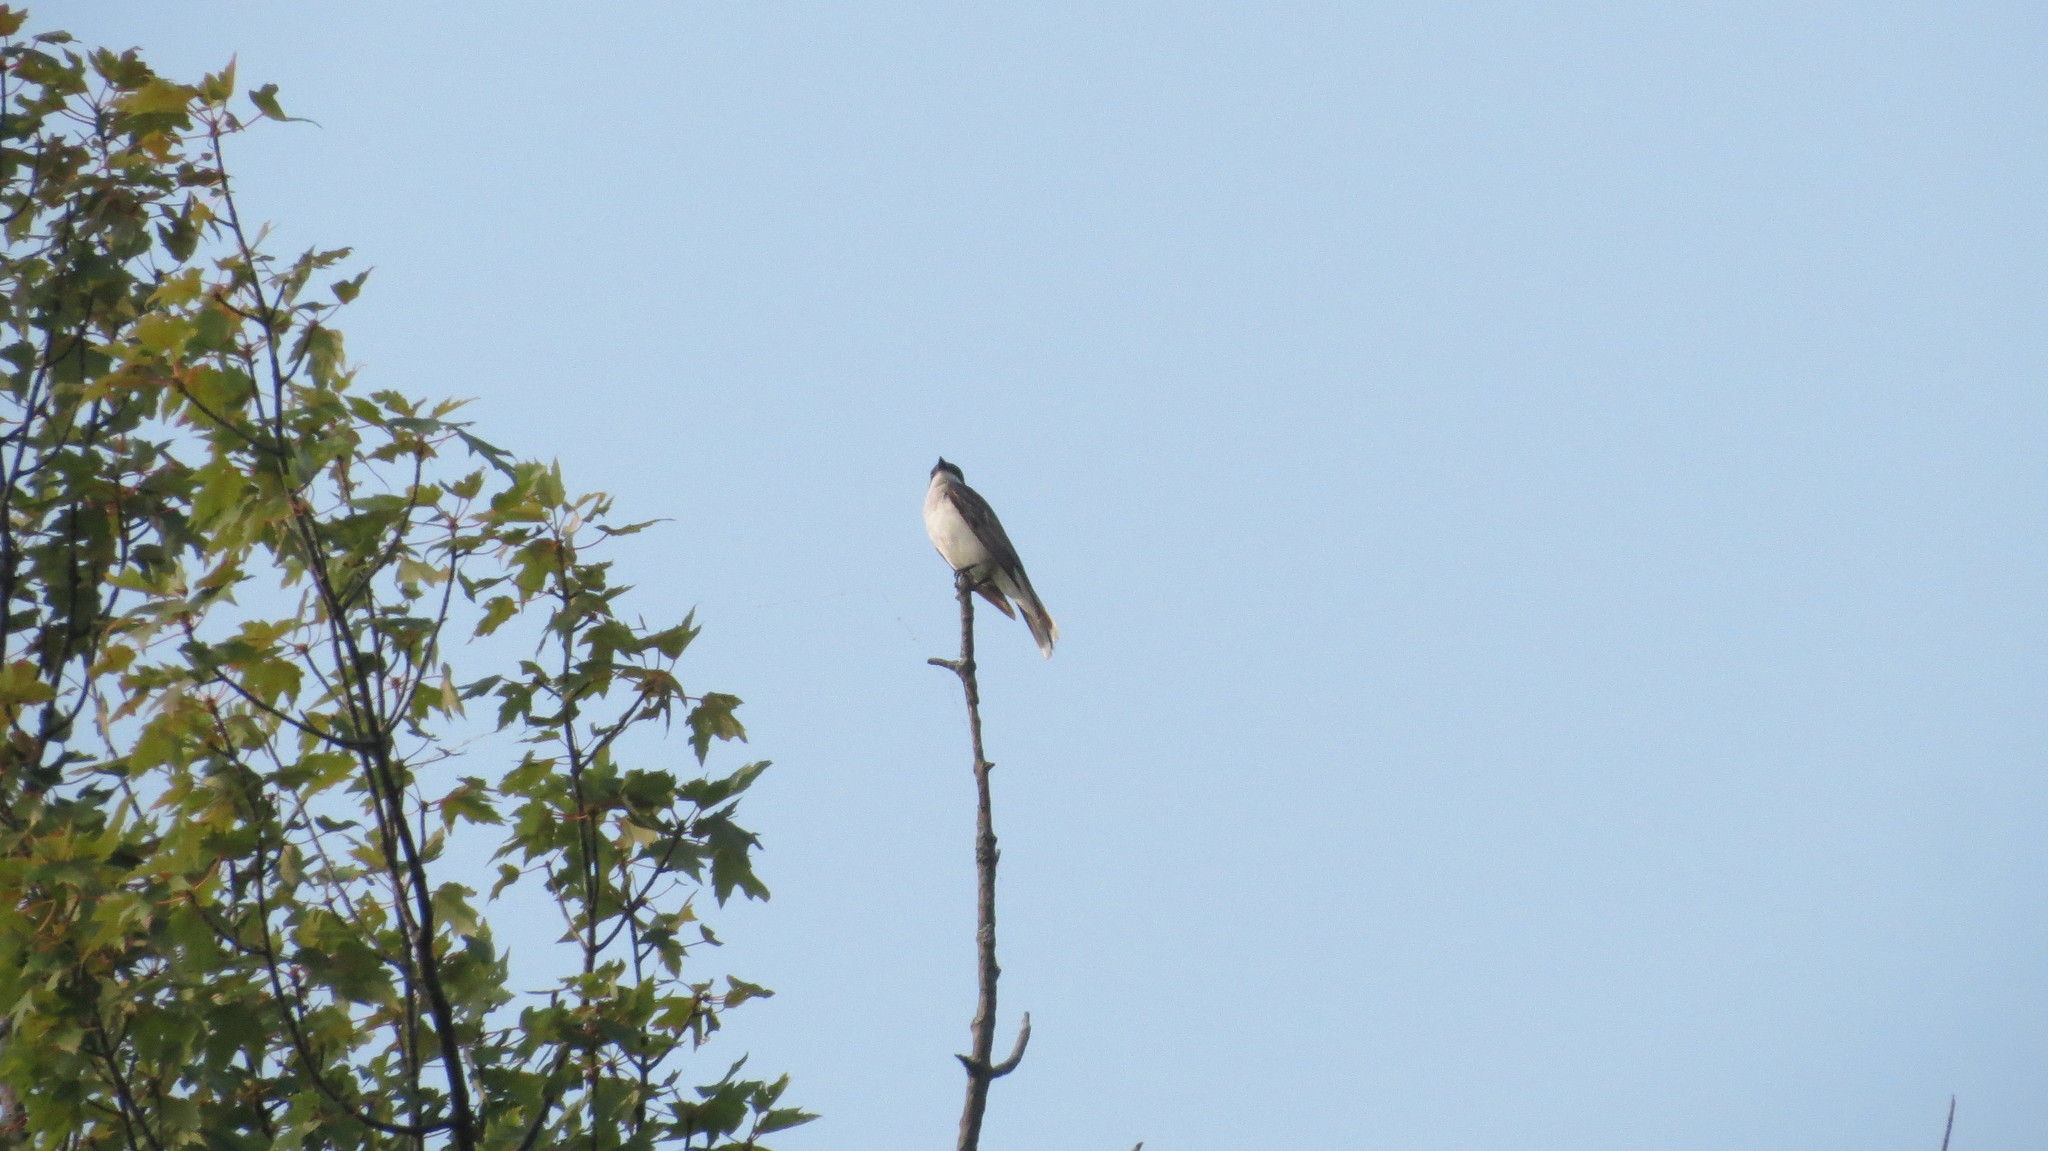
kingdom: Animalia
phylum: Chordata
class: Aves
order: Passeriformes
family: Tyrannidae
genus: Tyrannus
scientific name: Tyrannus tyrannus
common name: Eastern kingbird
